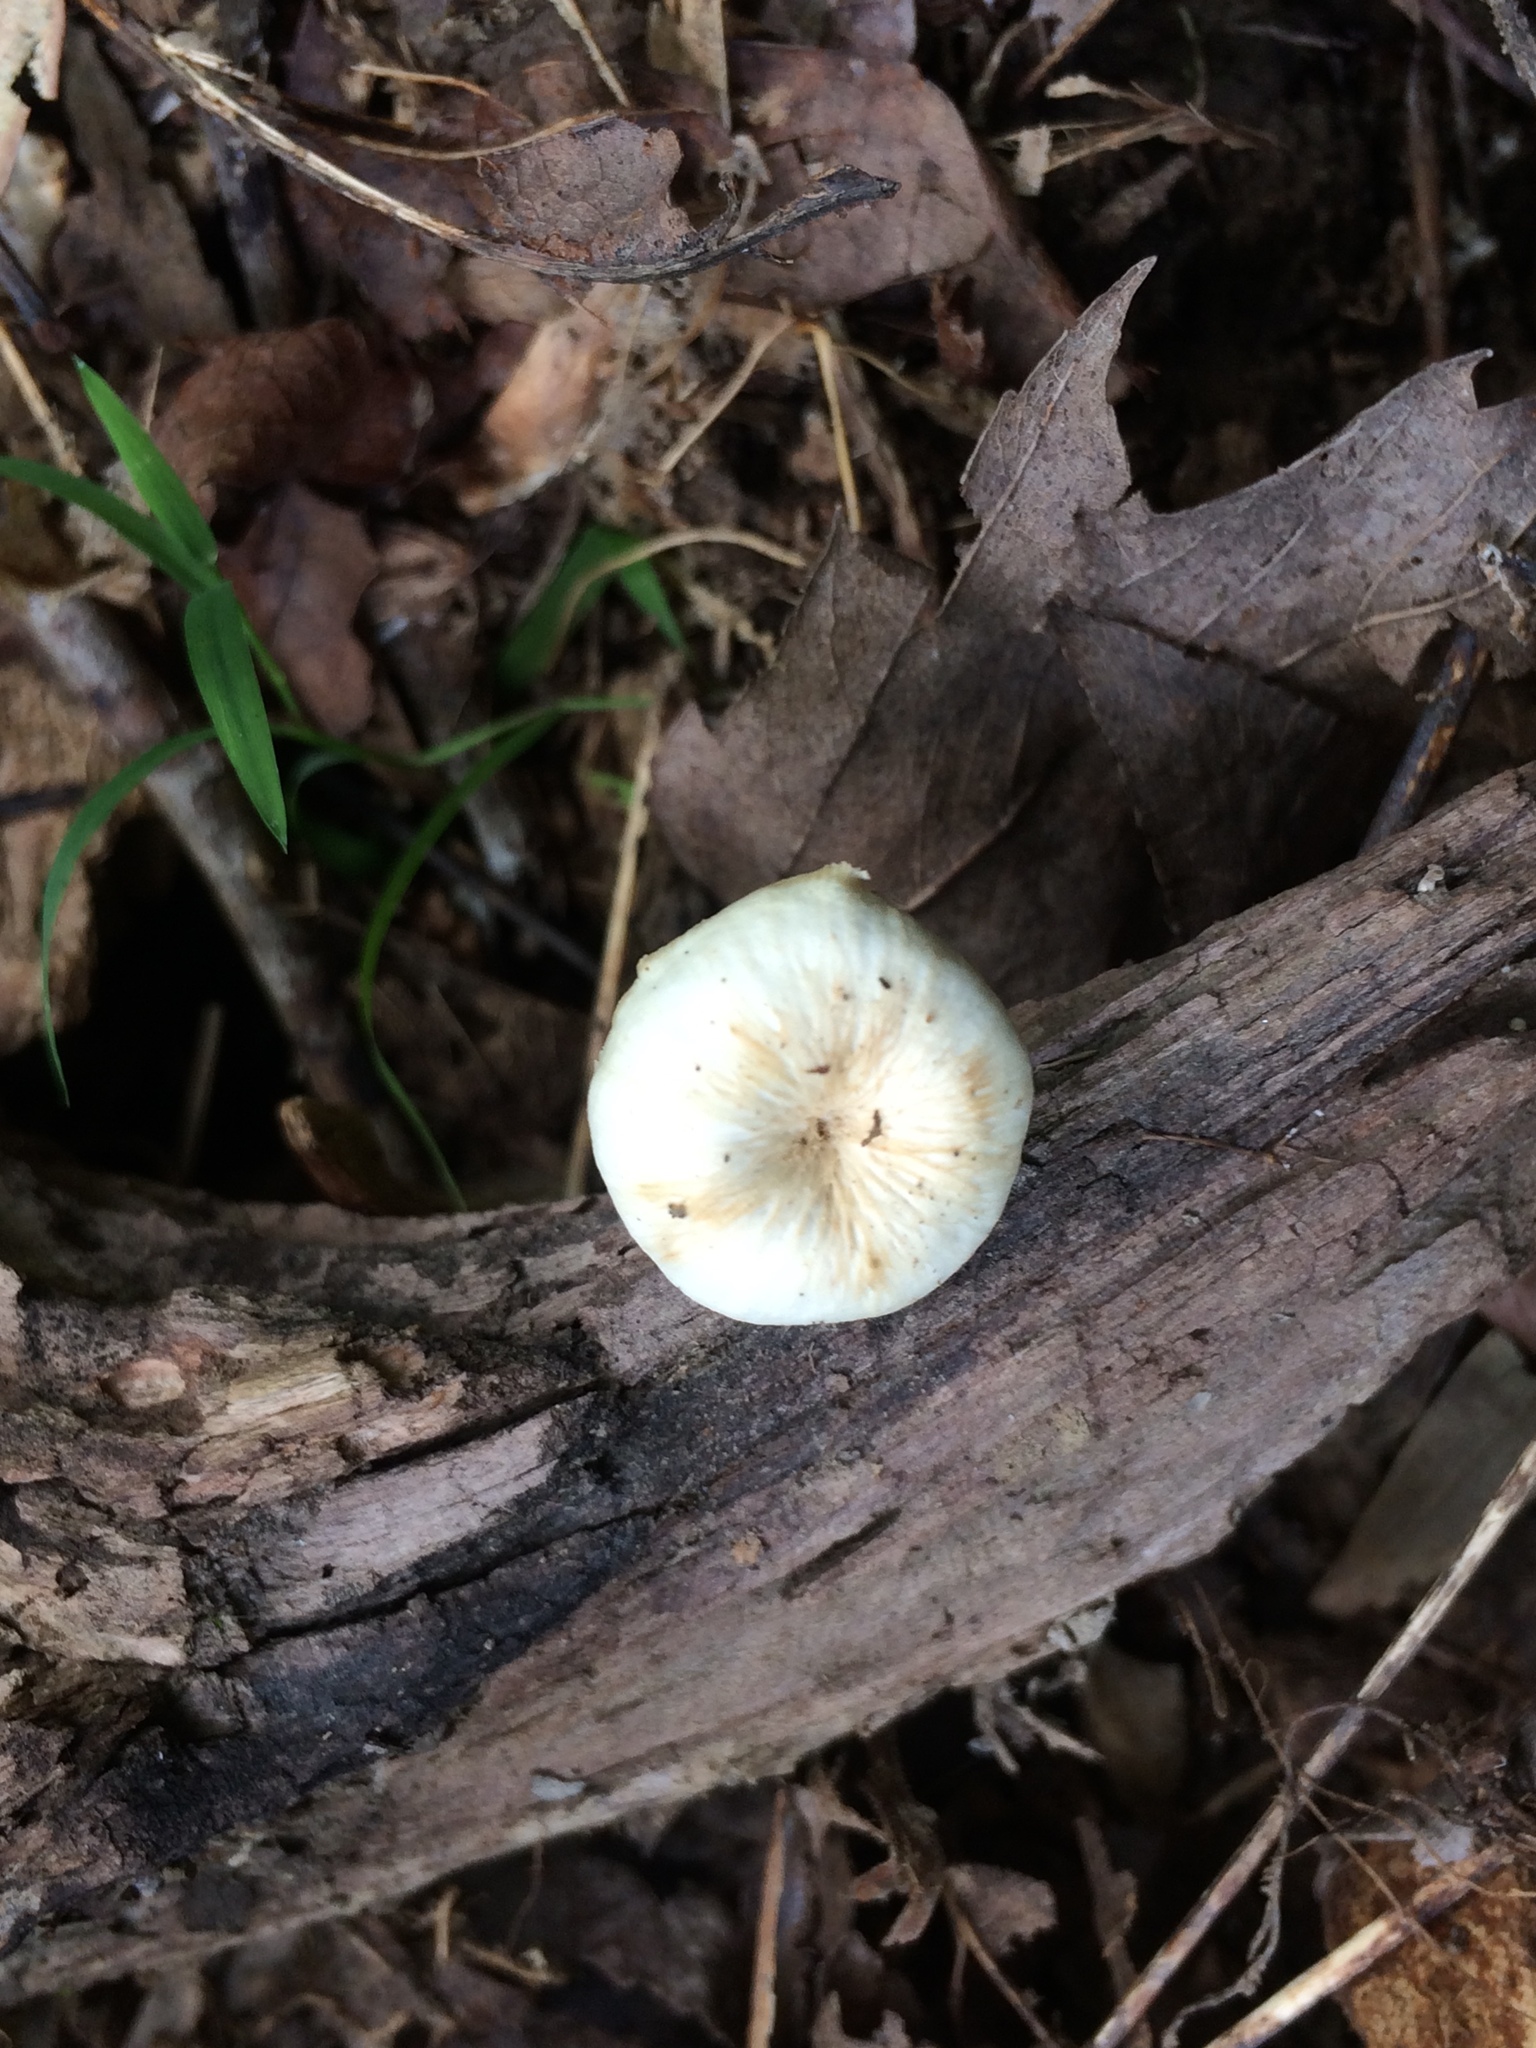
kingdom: Fungi
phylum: Basidiomycota
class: Agaricomycetes
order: Russulales
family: Auriscalpiaceae
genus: Lentinellus
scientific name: Lentinellus subaustralis
